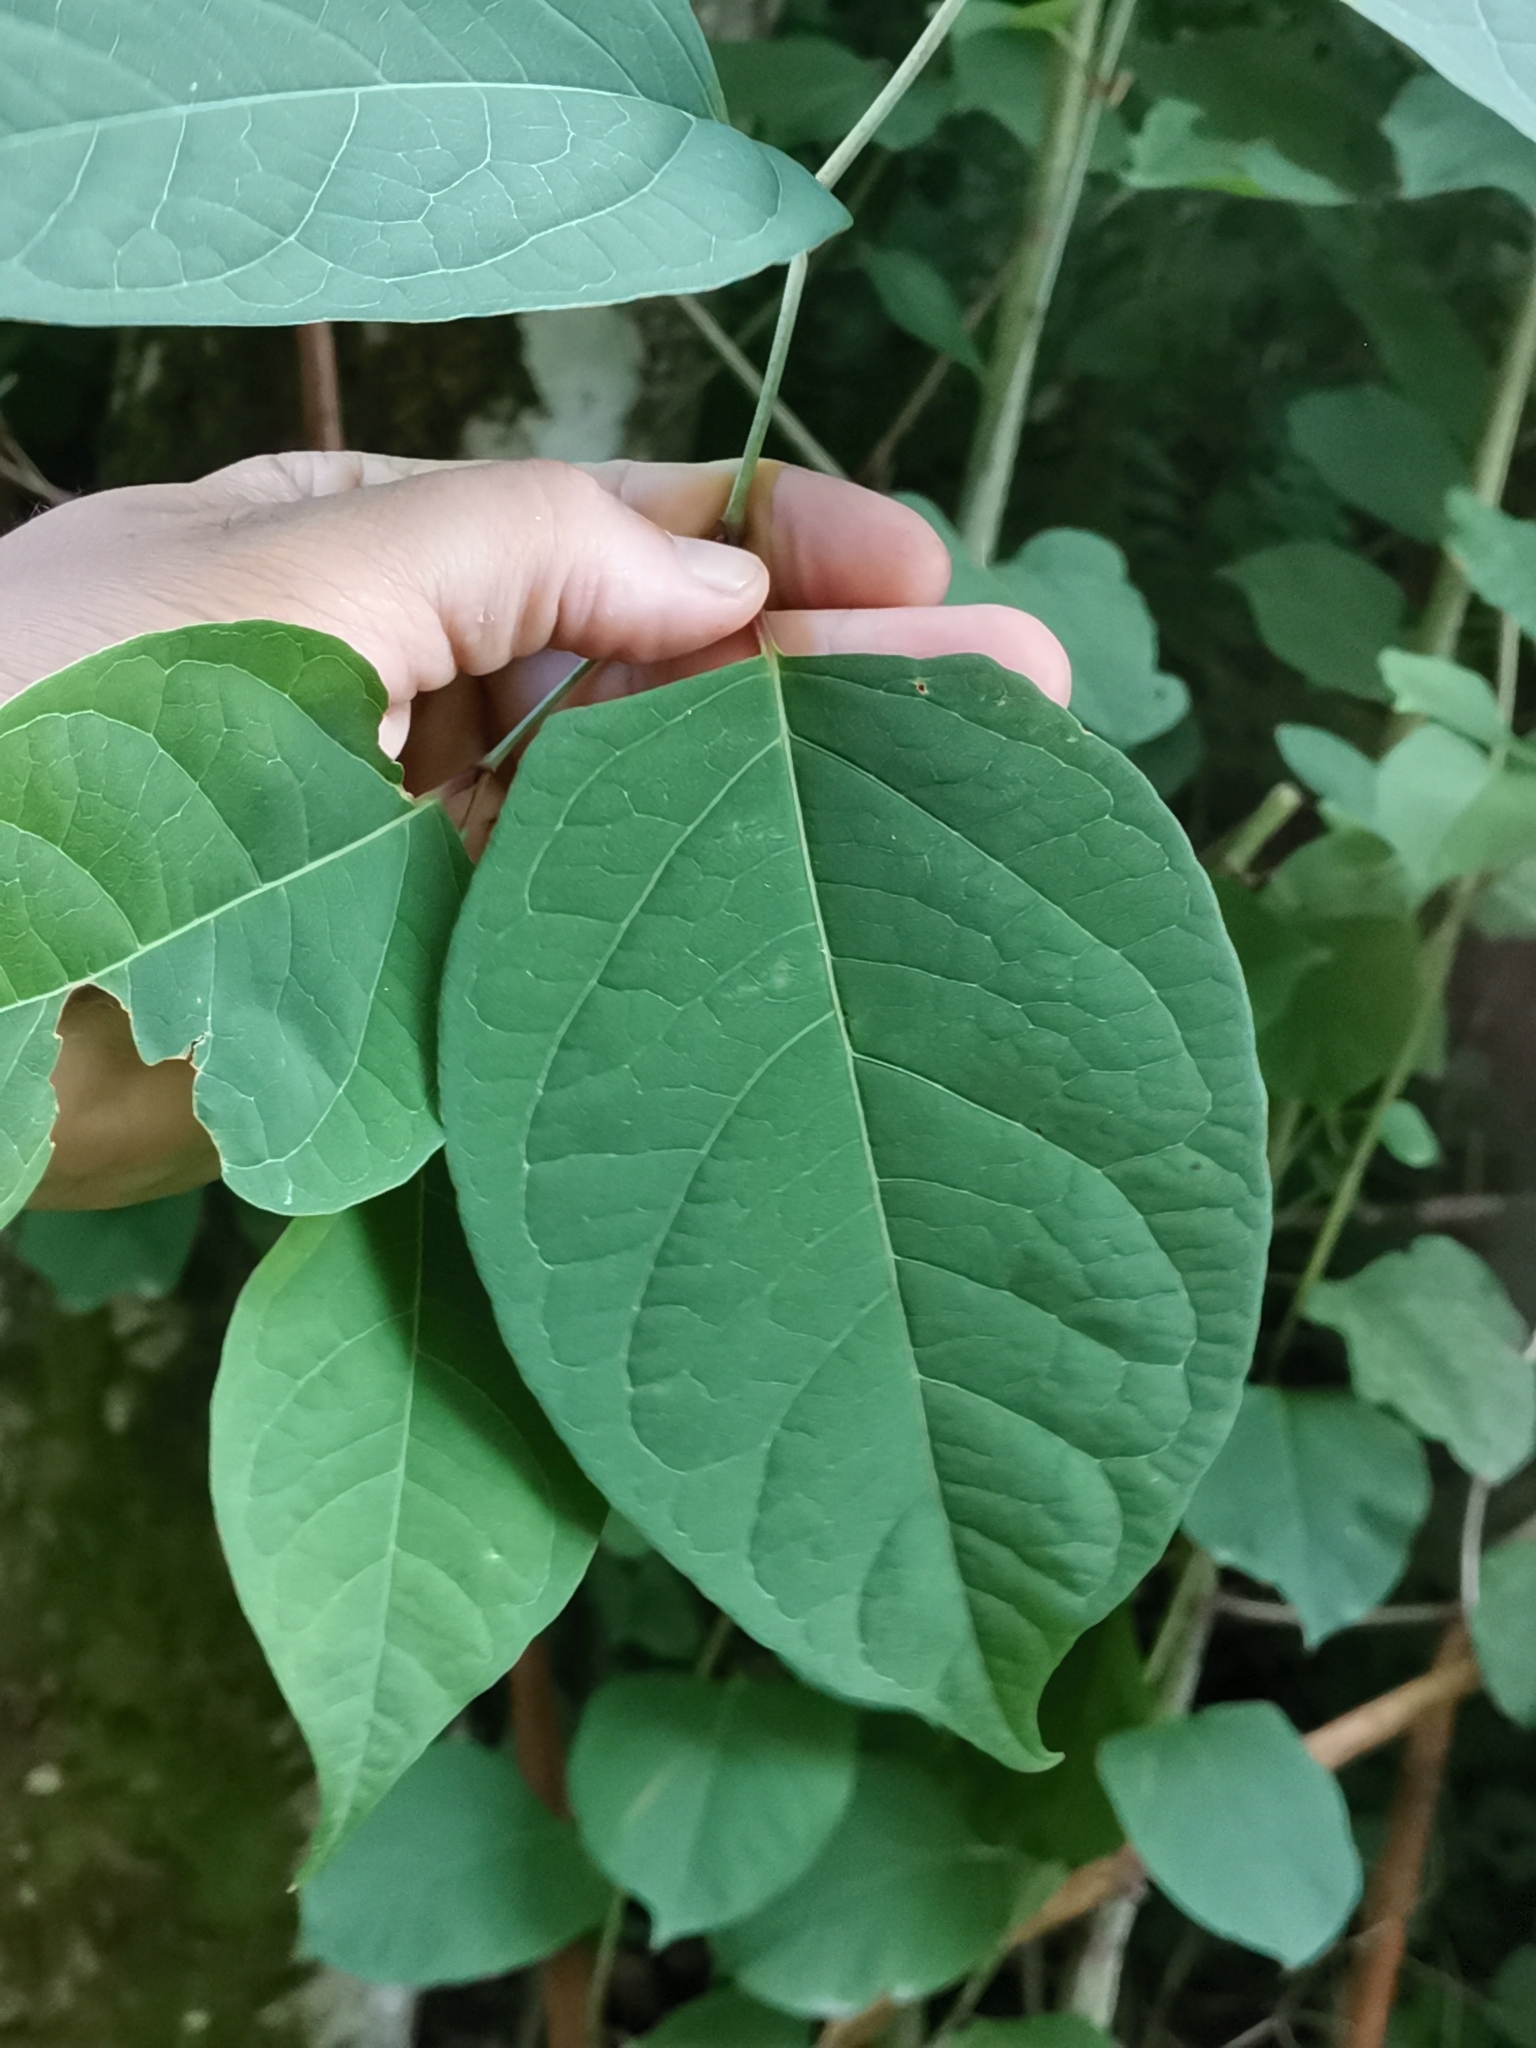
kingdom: Plantae
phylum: Tracheophyta
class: Magnoliopsida
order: Caryophyllales
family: Polygonaceae
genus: Reynoutria
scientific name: Reynoutria japonica
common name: Japanese knotweed
